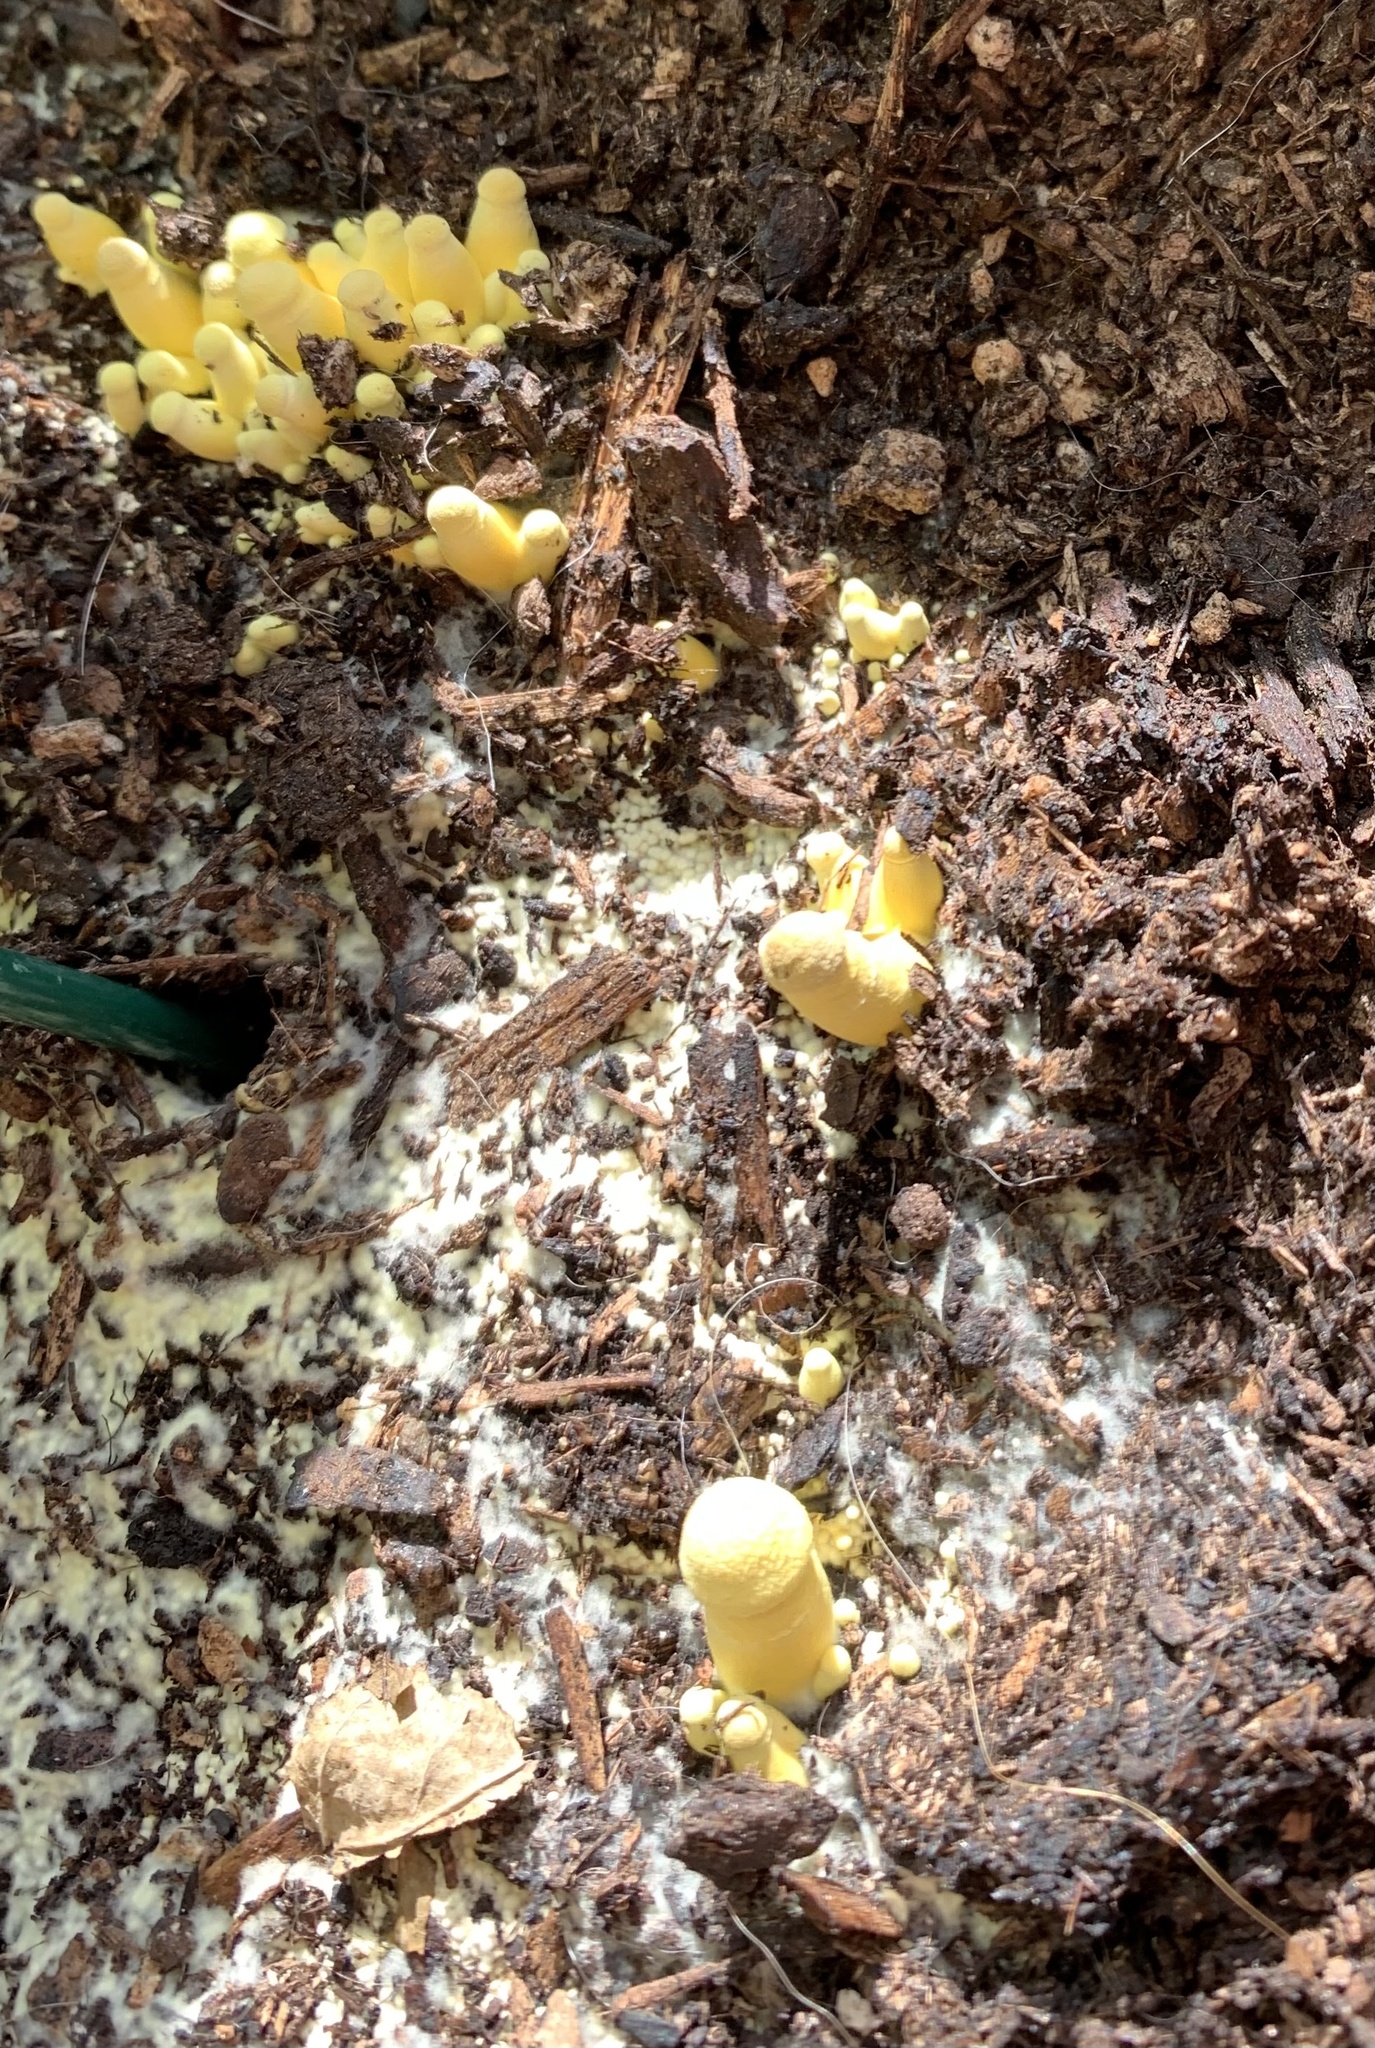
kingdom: Fungi
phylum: Basidiomycota
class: Agaricomycetes
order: Agaricales
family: Agaricaceae
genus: Leucocoprinus
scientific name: Leucocoprinus birnbaumii
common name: Plantpot dapperling
